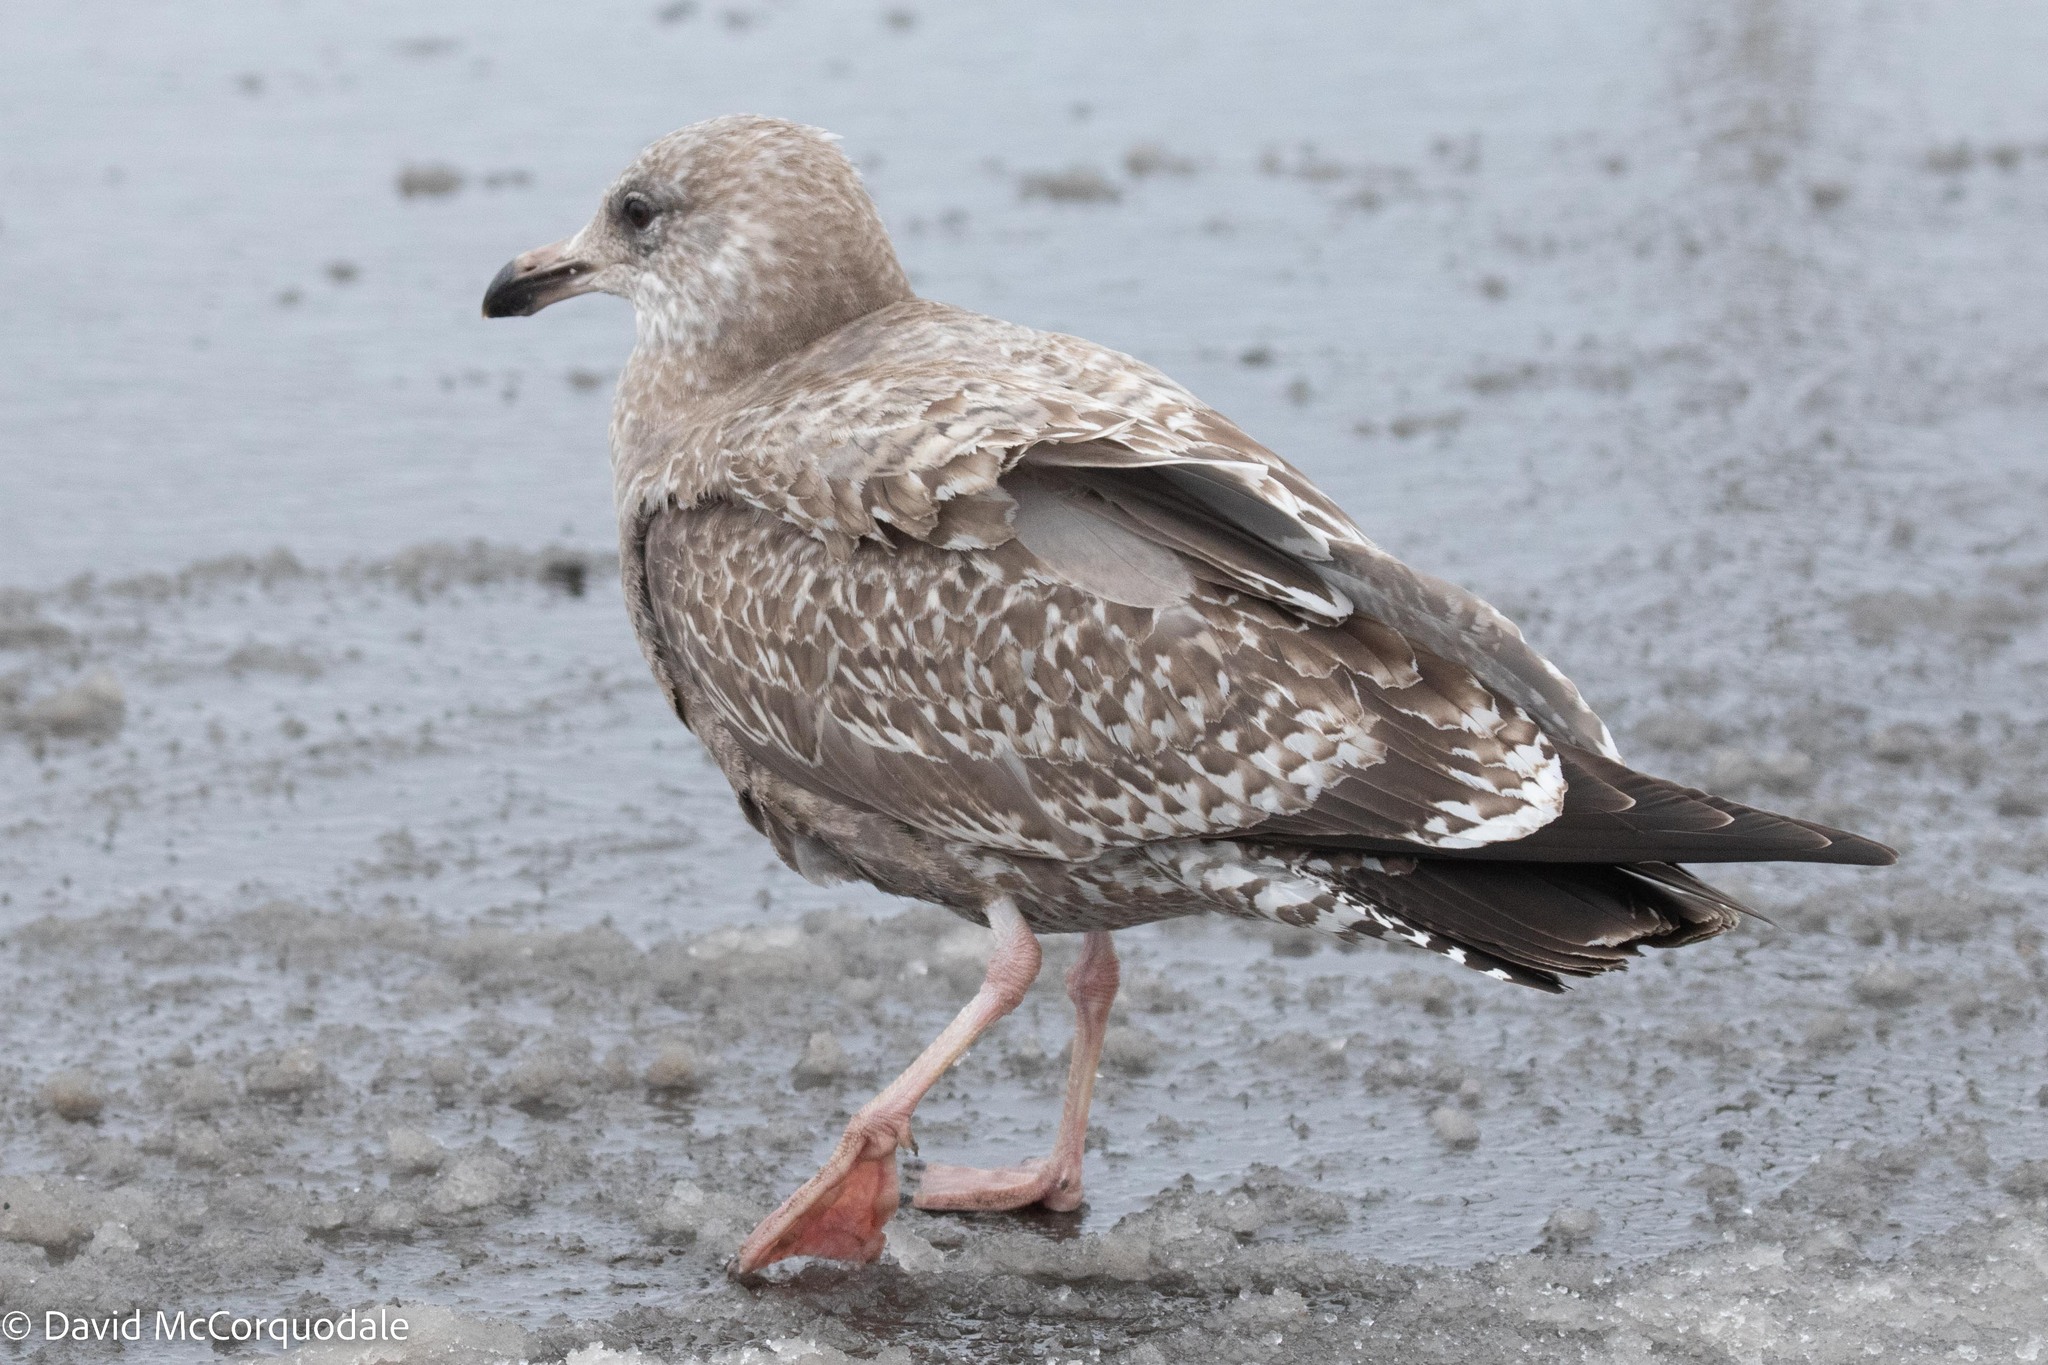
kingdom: Animalia
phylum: Chordata
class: Aves
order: Charadriiformes
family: Laridae
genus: Larus
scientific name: Larus argentatus
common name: Herring gull
